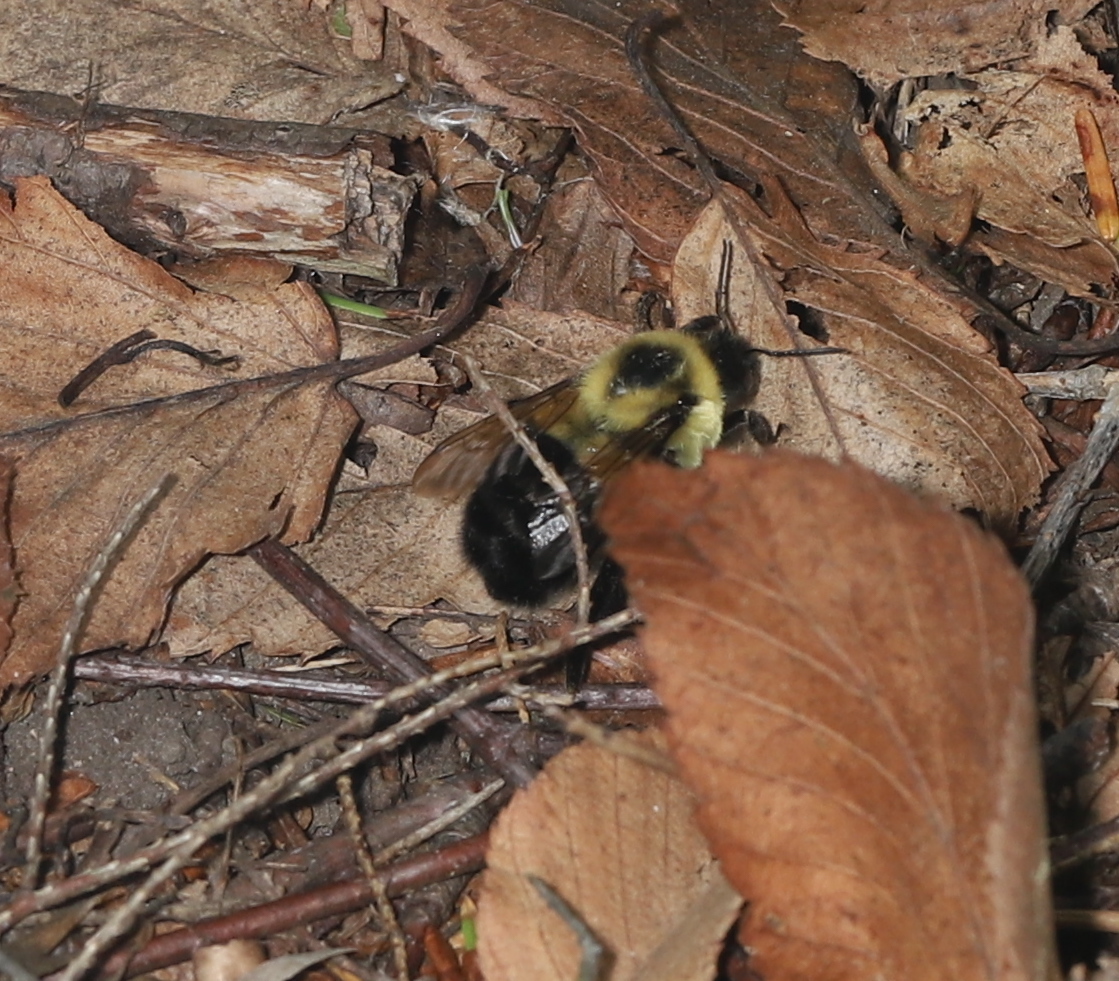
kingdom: Animalia
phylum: Arthropoda
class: Insecta
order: Hymenoptera
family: Apidae
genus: Bombus
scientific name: Bombus impatiens
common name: Common eastern bumble bee
